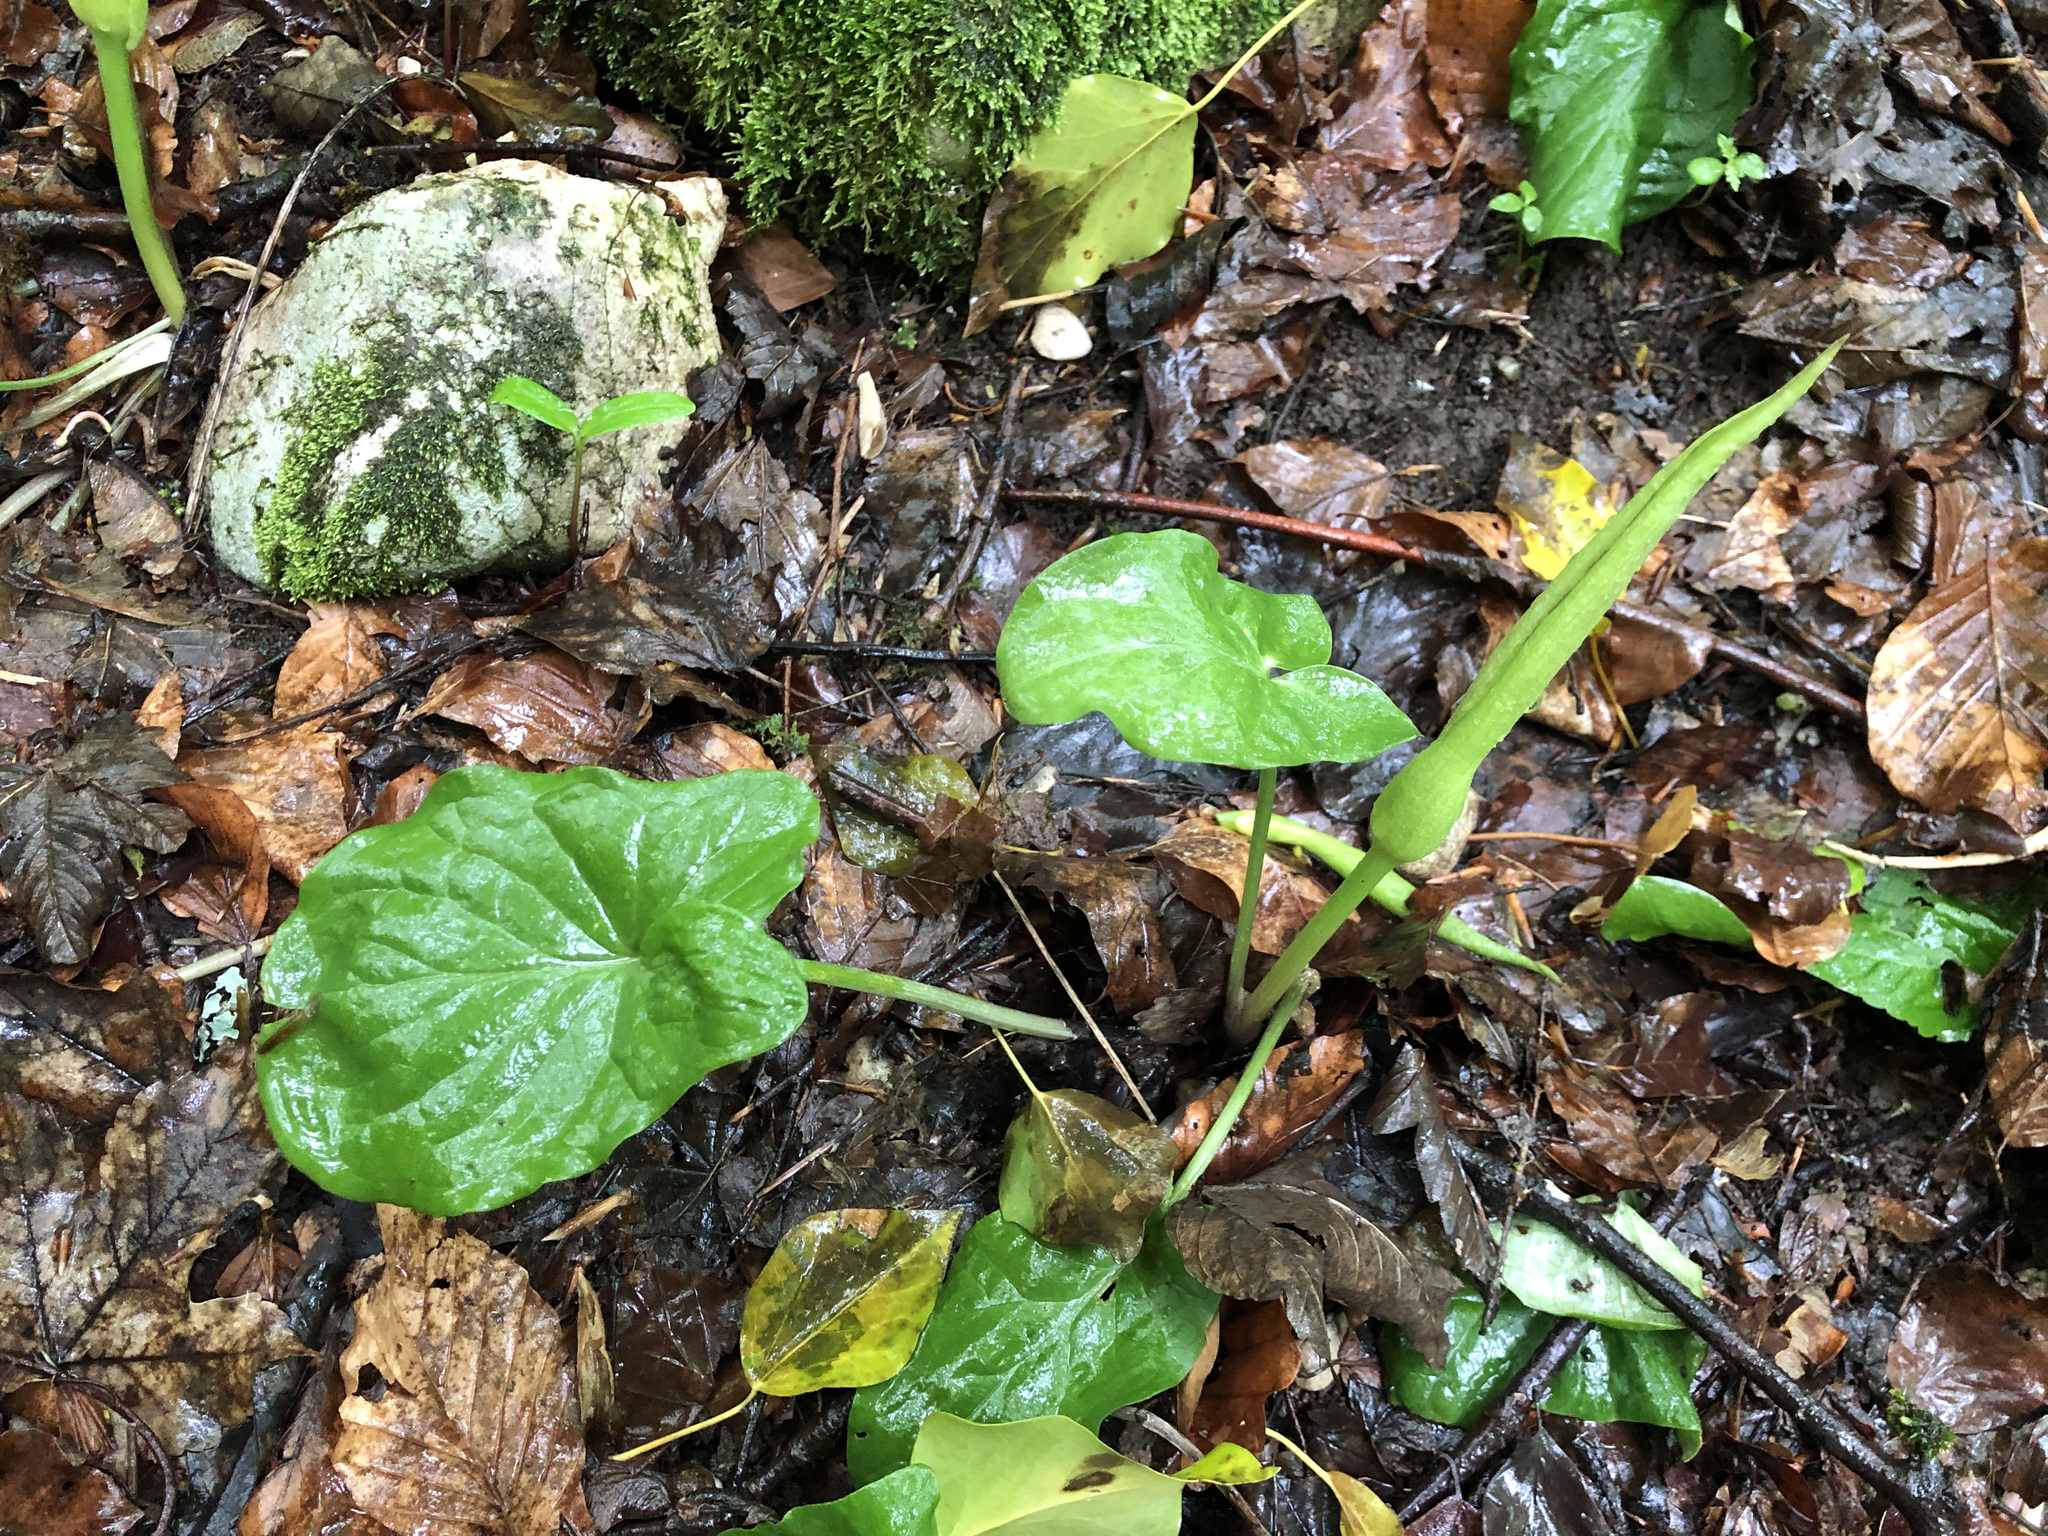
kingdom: Plantae
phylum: Tracheophyta
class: Liliopsida
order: Alismatales
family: Araceae
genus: Arum
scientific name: Arum maculatum
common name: Lords-and-ladies
